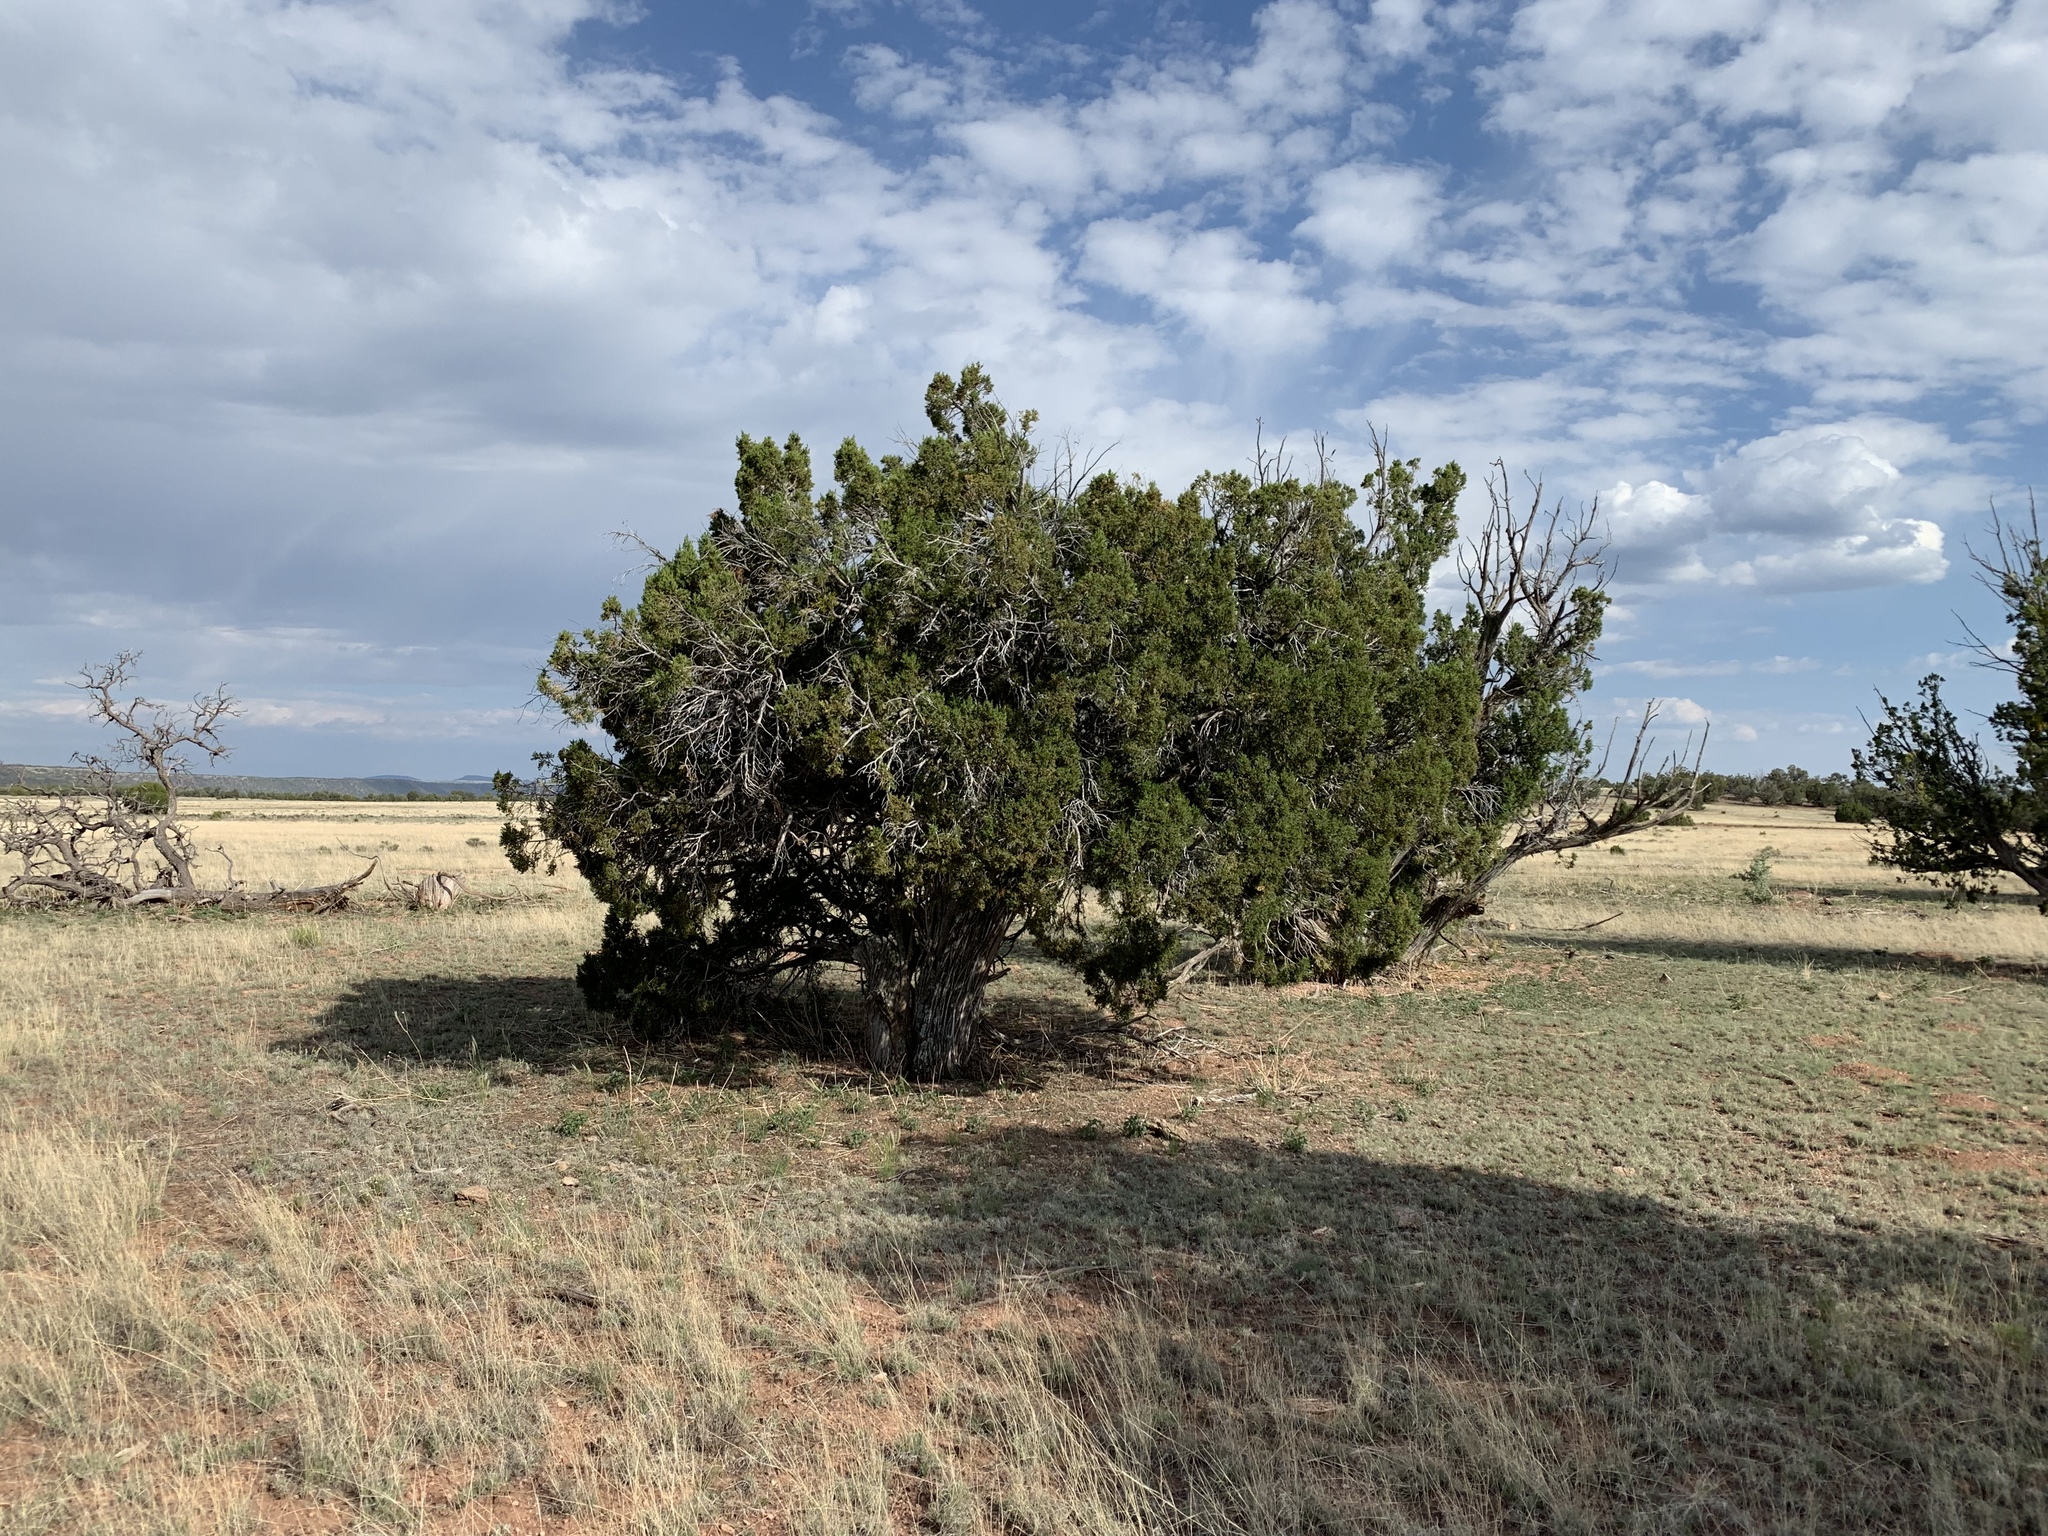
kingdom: Plantae
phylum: Tracheophyta
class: Pinopsida
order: Pinales
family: Cupressaceae
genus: Juniperus
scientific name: Juniperus monosperma
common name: One-seed juniper
